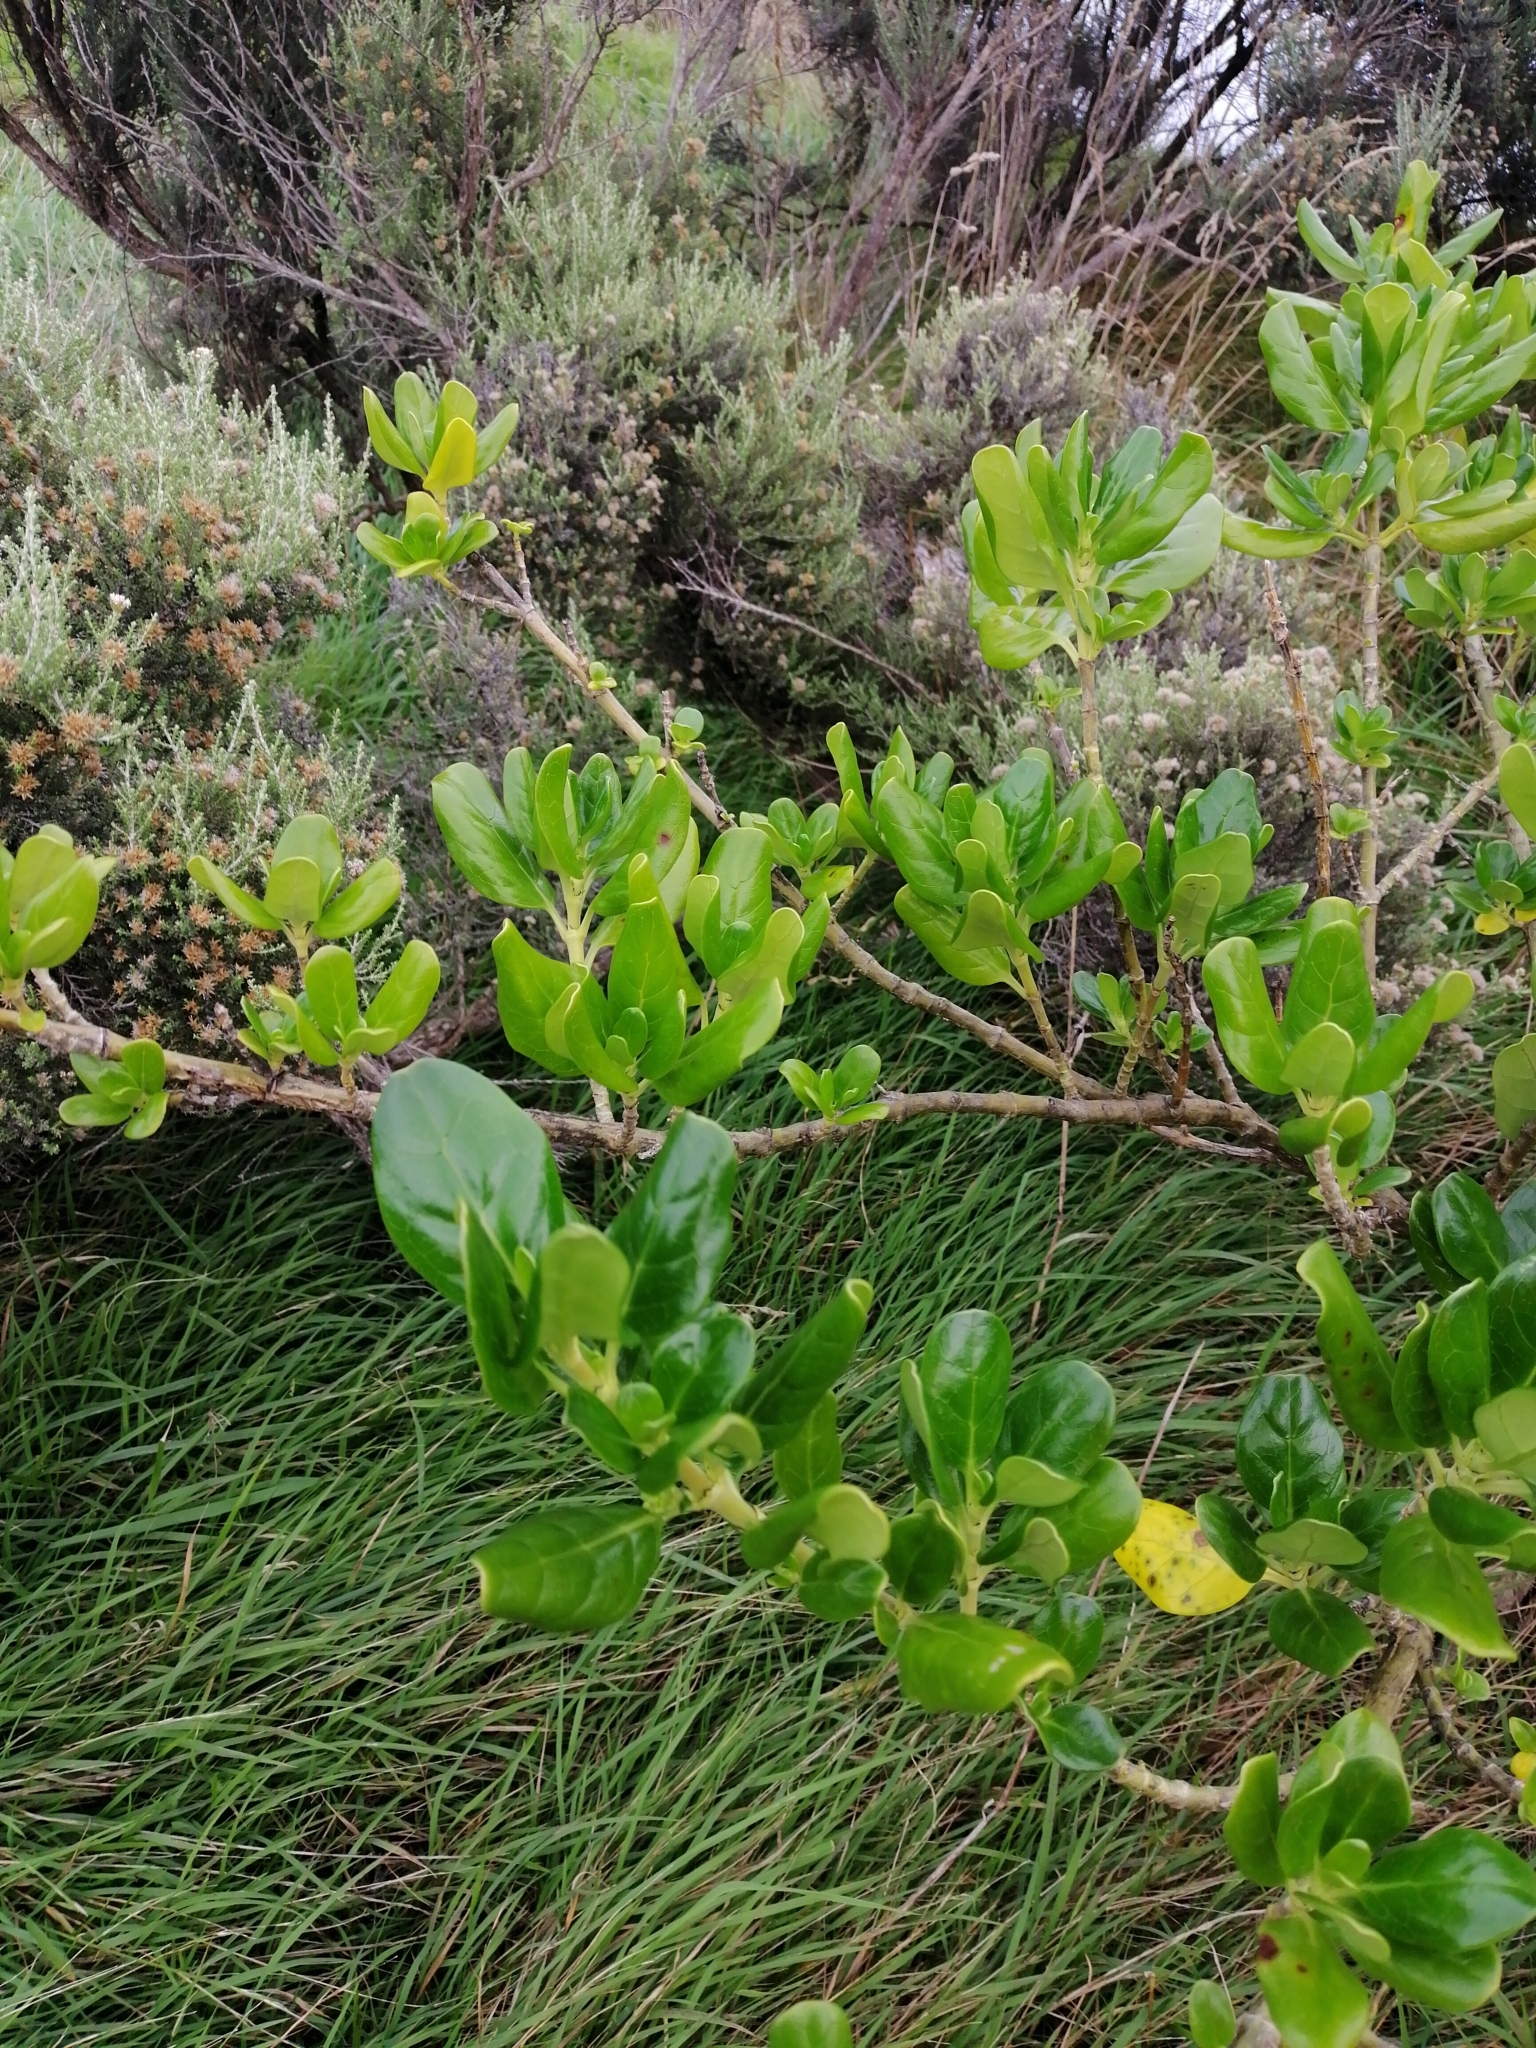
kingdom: Plantae
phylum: Tracheophyta
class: Magnoliopsida
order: Gentianales
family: Rubiaceae
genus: Coprosma
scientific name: Coprosma repens
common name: Tree bedstraw
